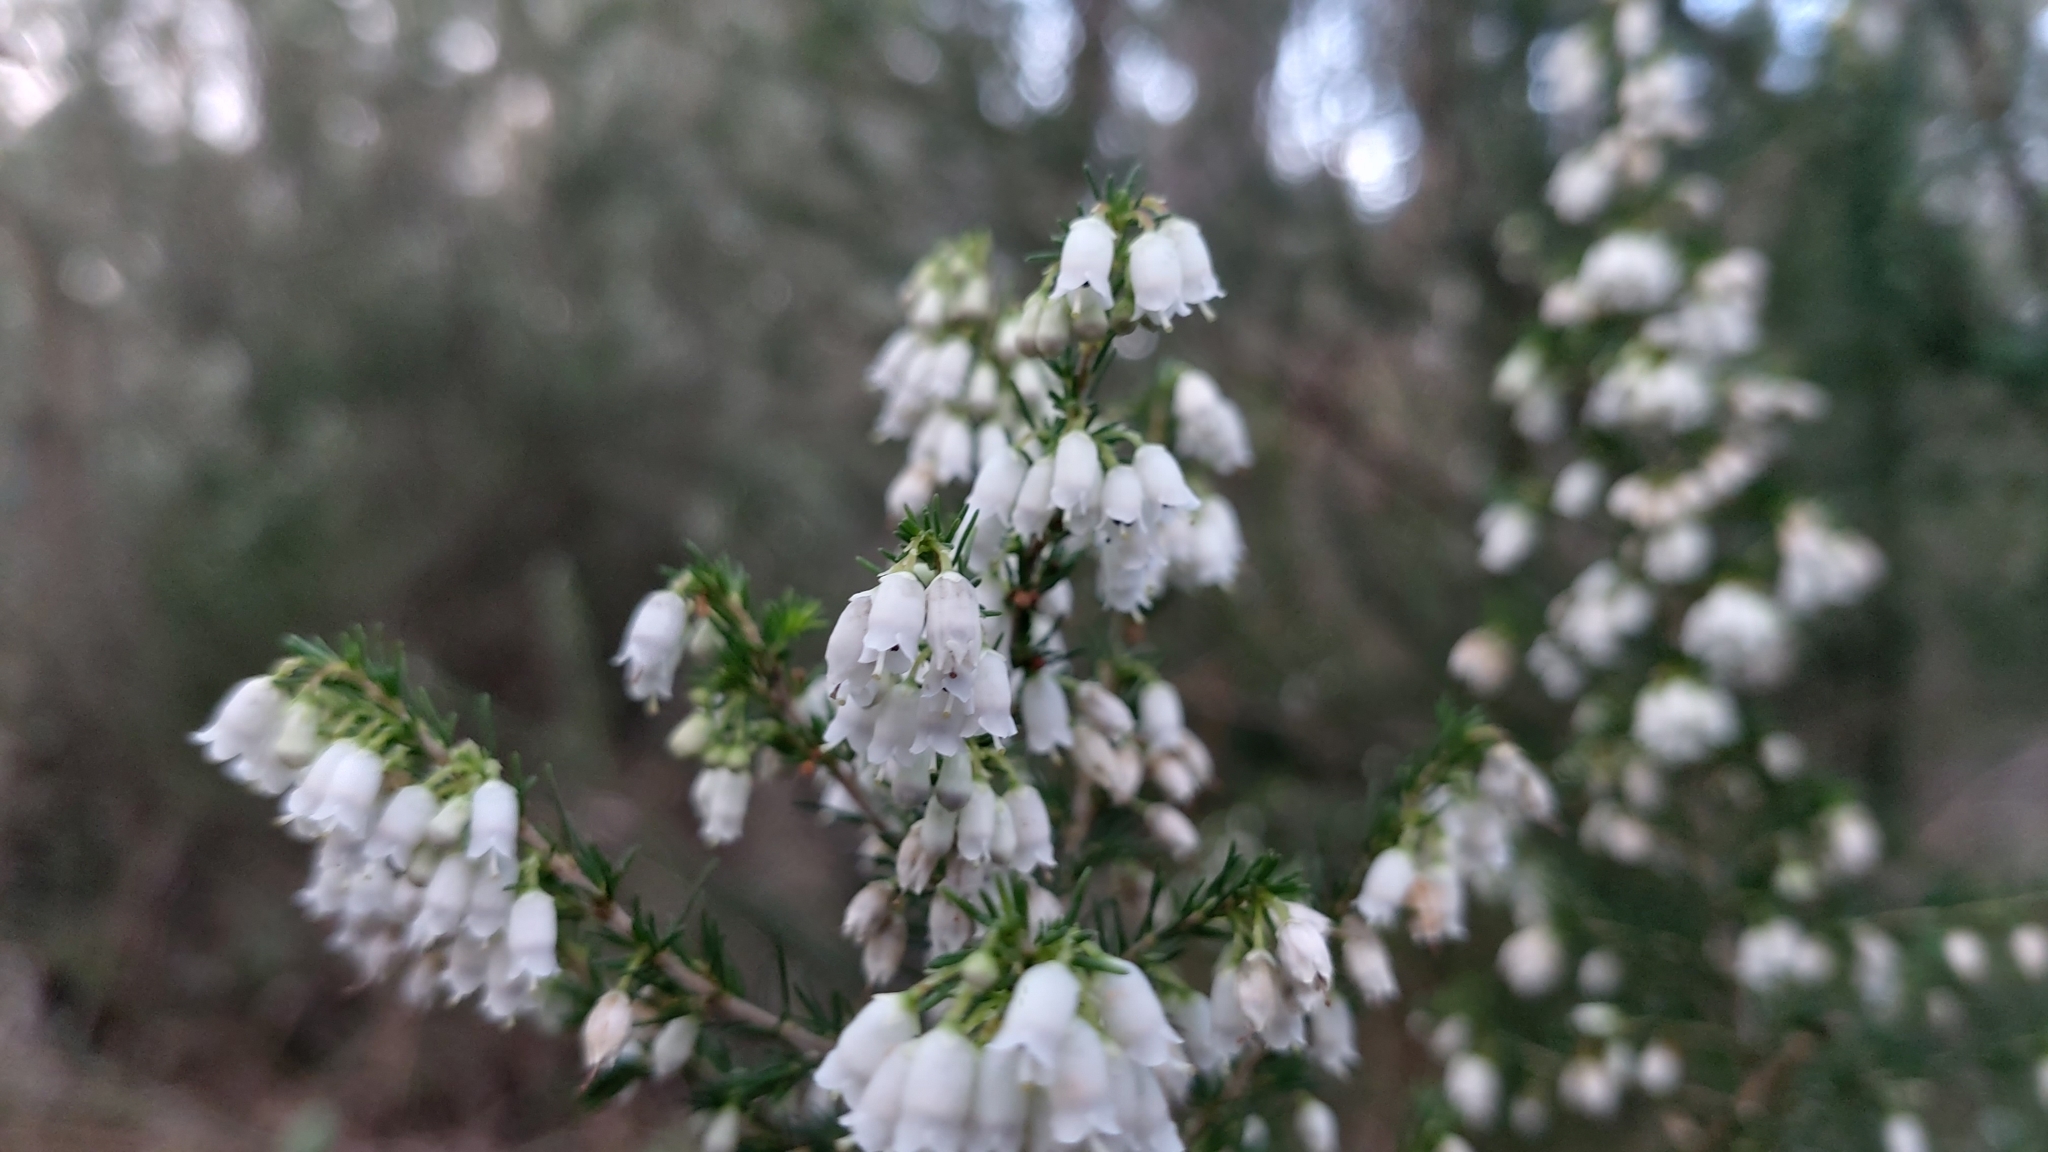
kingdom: Plantae
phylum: Tracheophyta
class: Magnoliopsida
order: Ericales
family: Ericaceae
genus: Erica
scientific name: Erica lusitanica
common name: Spanish heath
